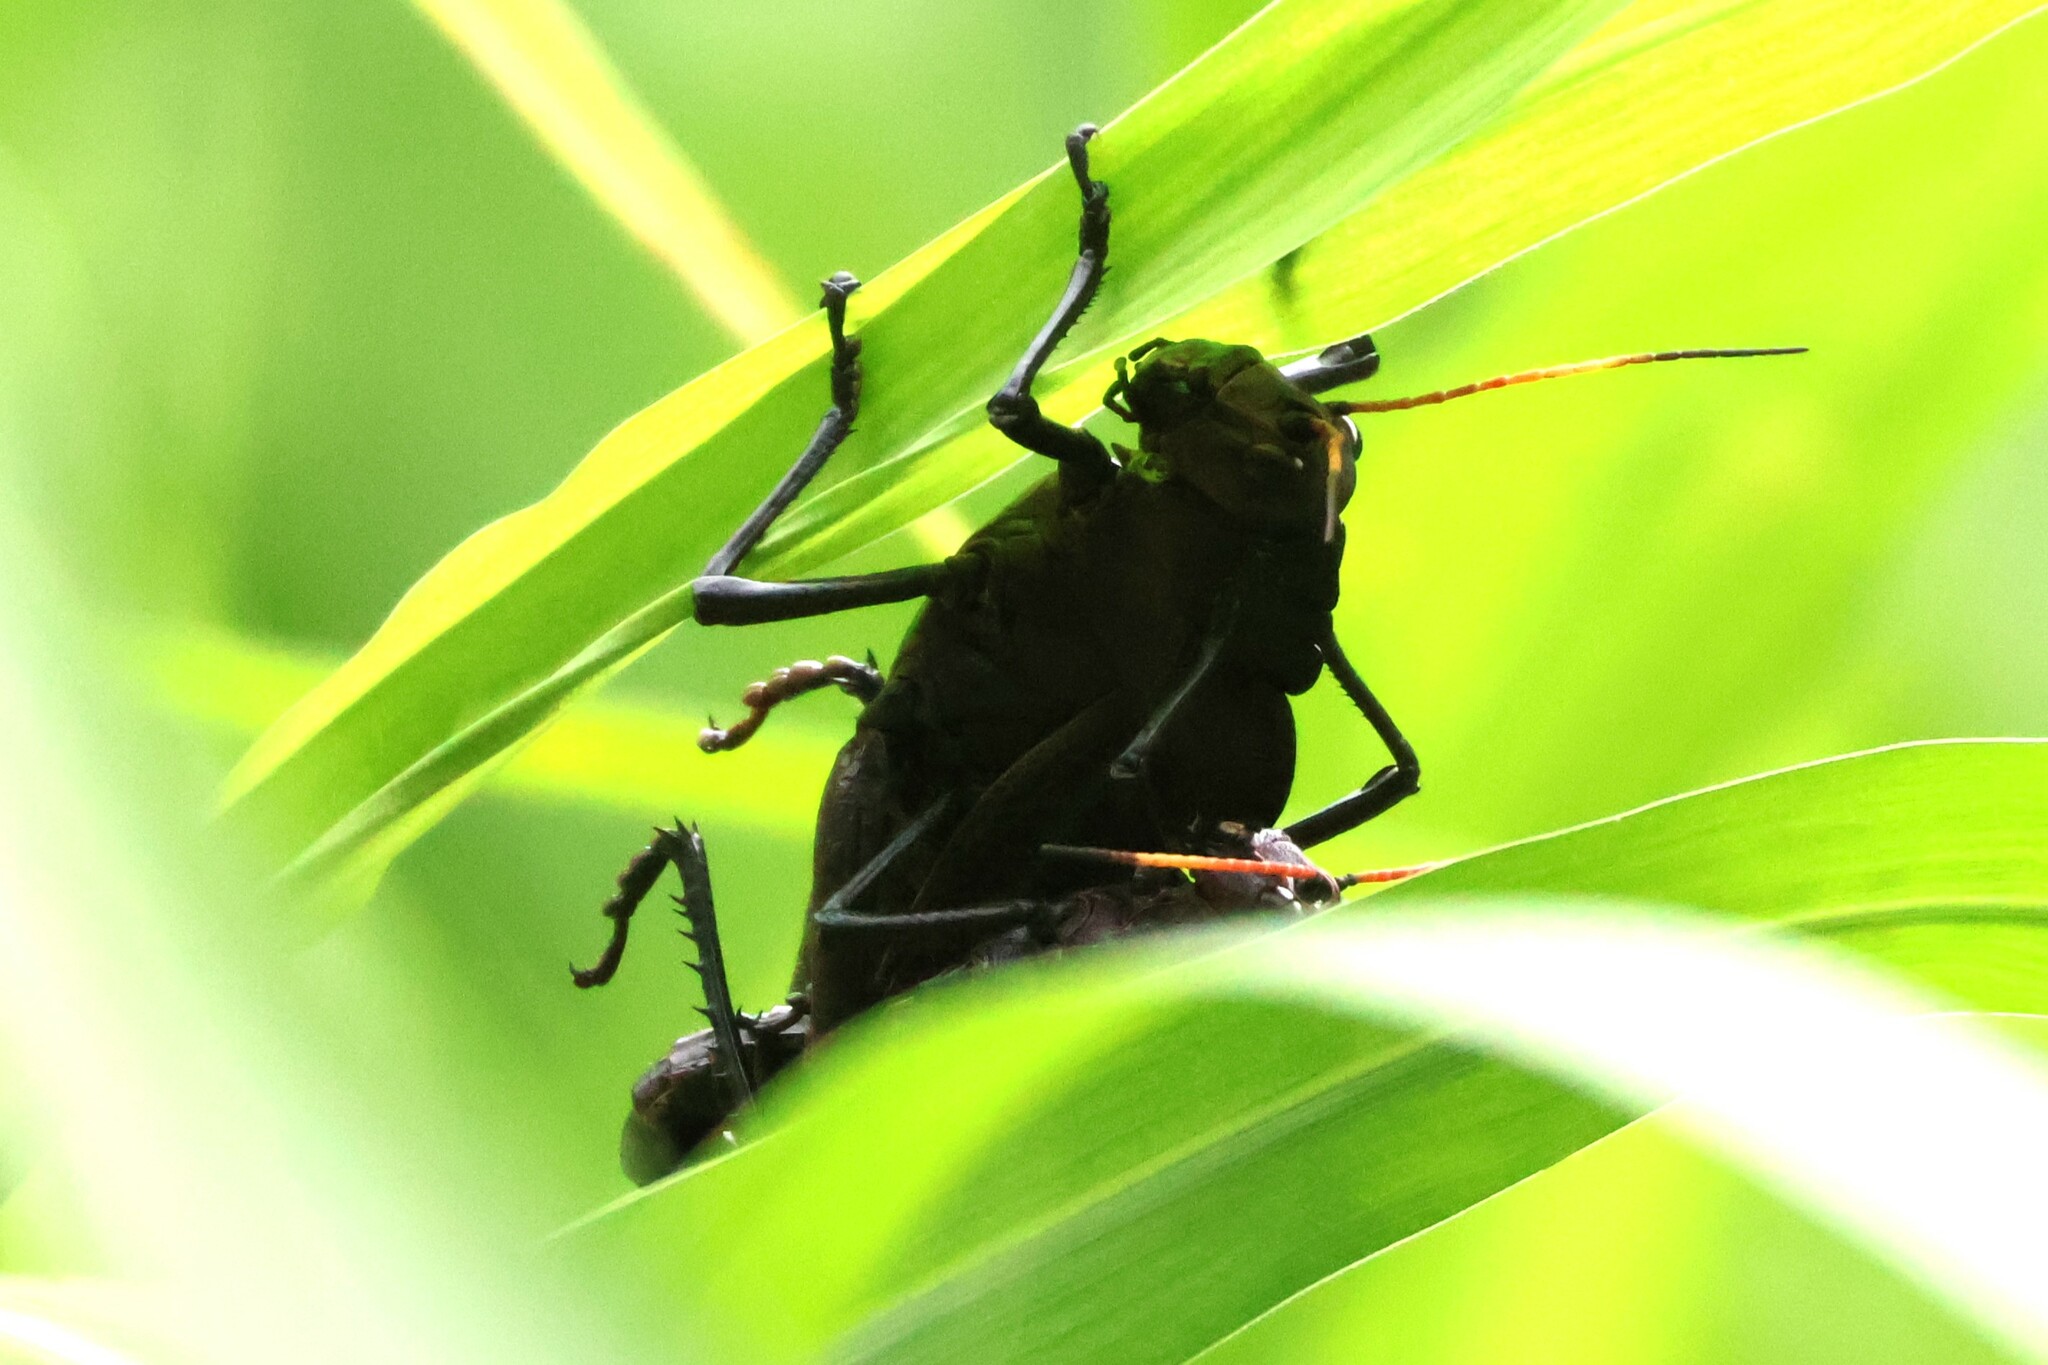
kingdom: Animalia
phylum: Arthropoda
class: Insecta
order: Orthoptera
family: Romaleidae
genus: Romalea
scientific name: Romalea
